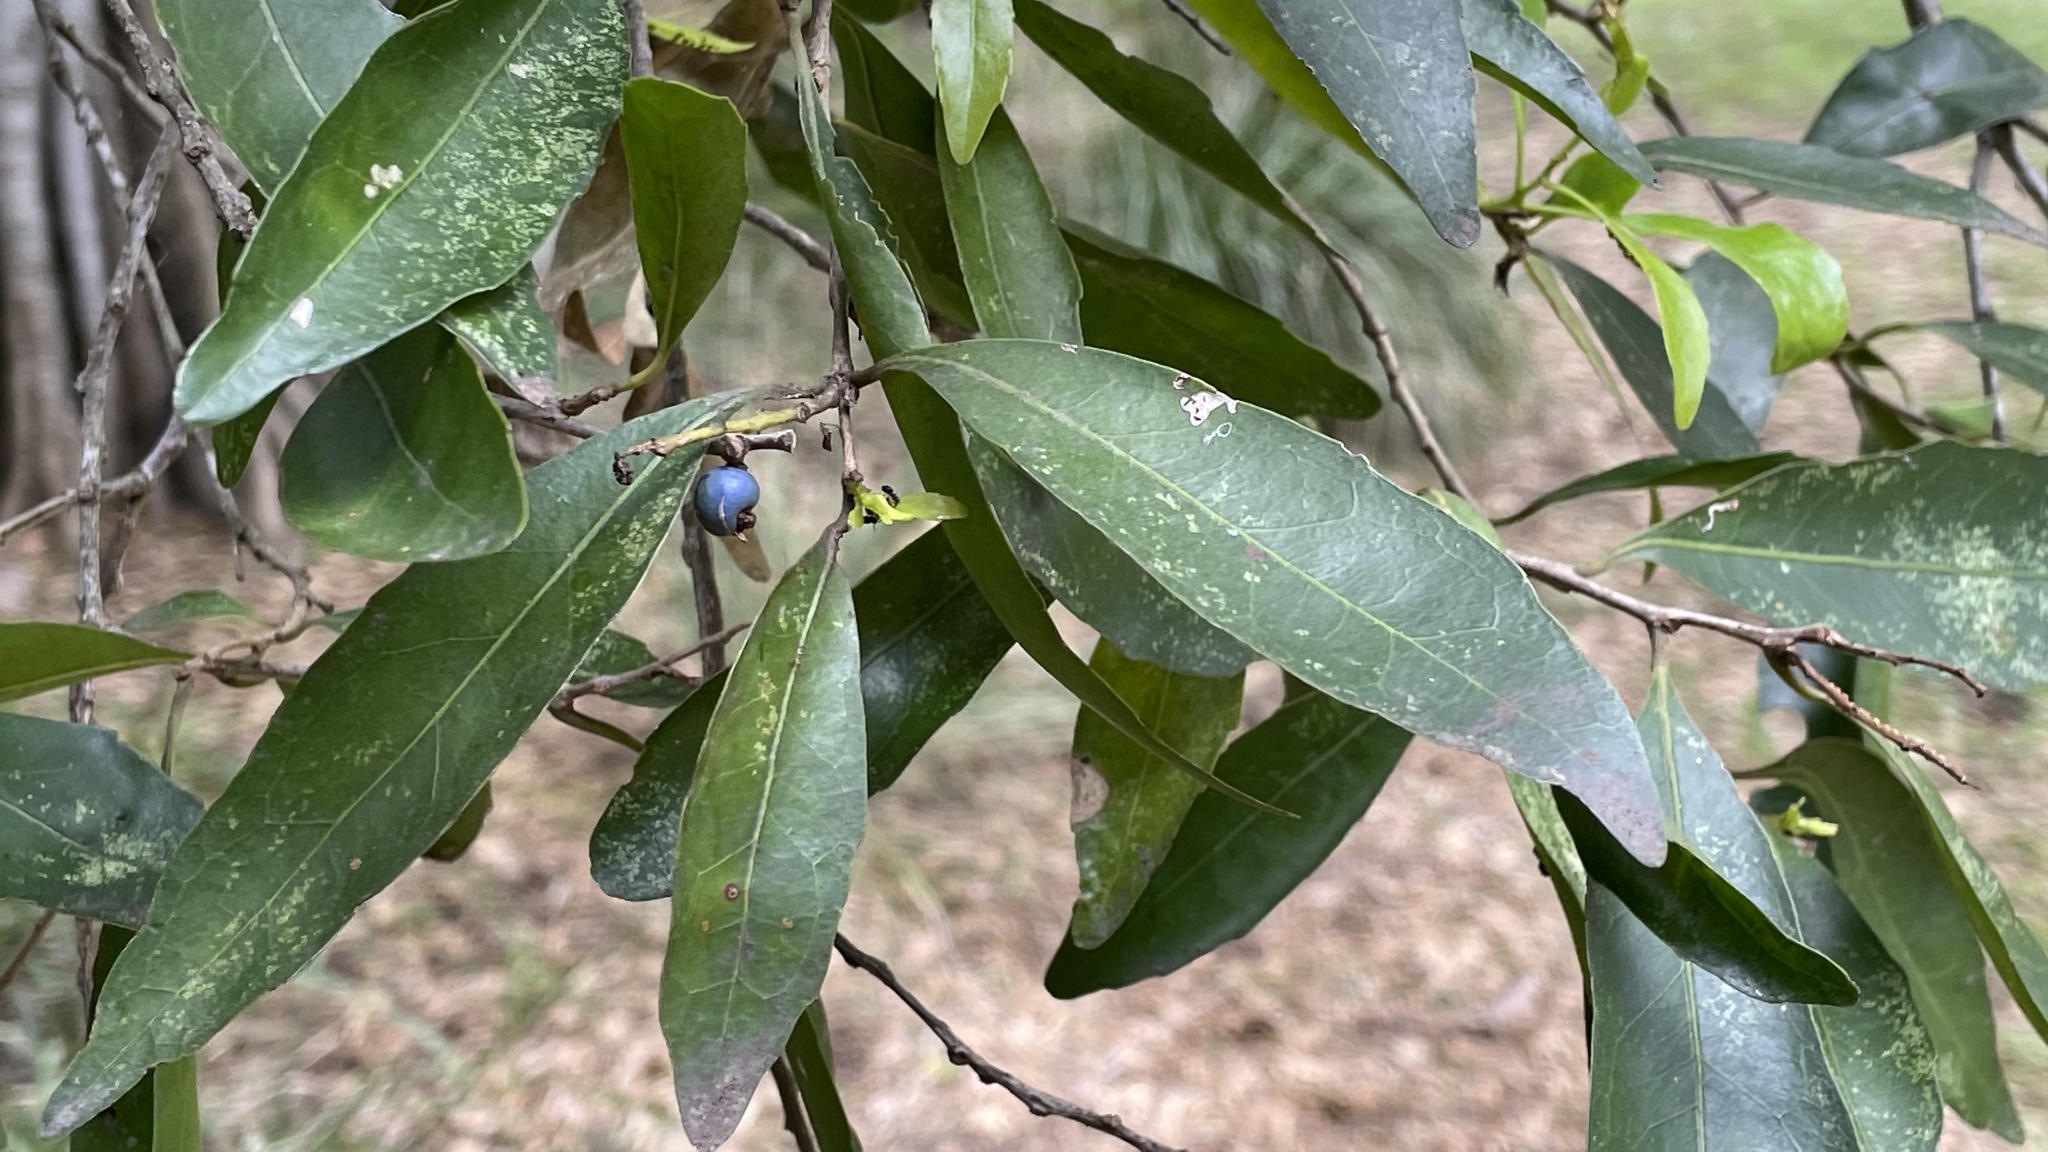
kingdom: Plantae
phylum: Tracheophyta
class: Magnoliopsida
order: Oxalidales
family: Elaeocarpaceae
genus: Elaeocarpus
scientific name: Elaeocarpus obovatus
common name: Freckled oliveberry
